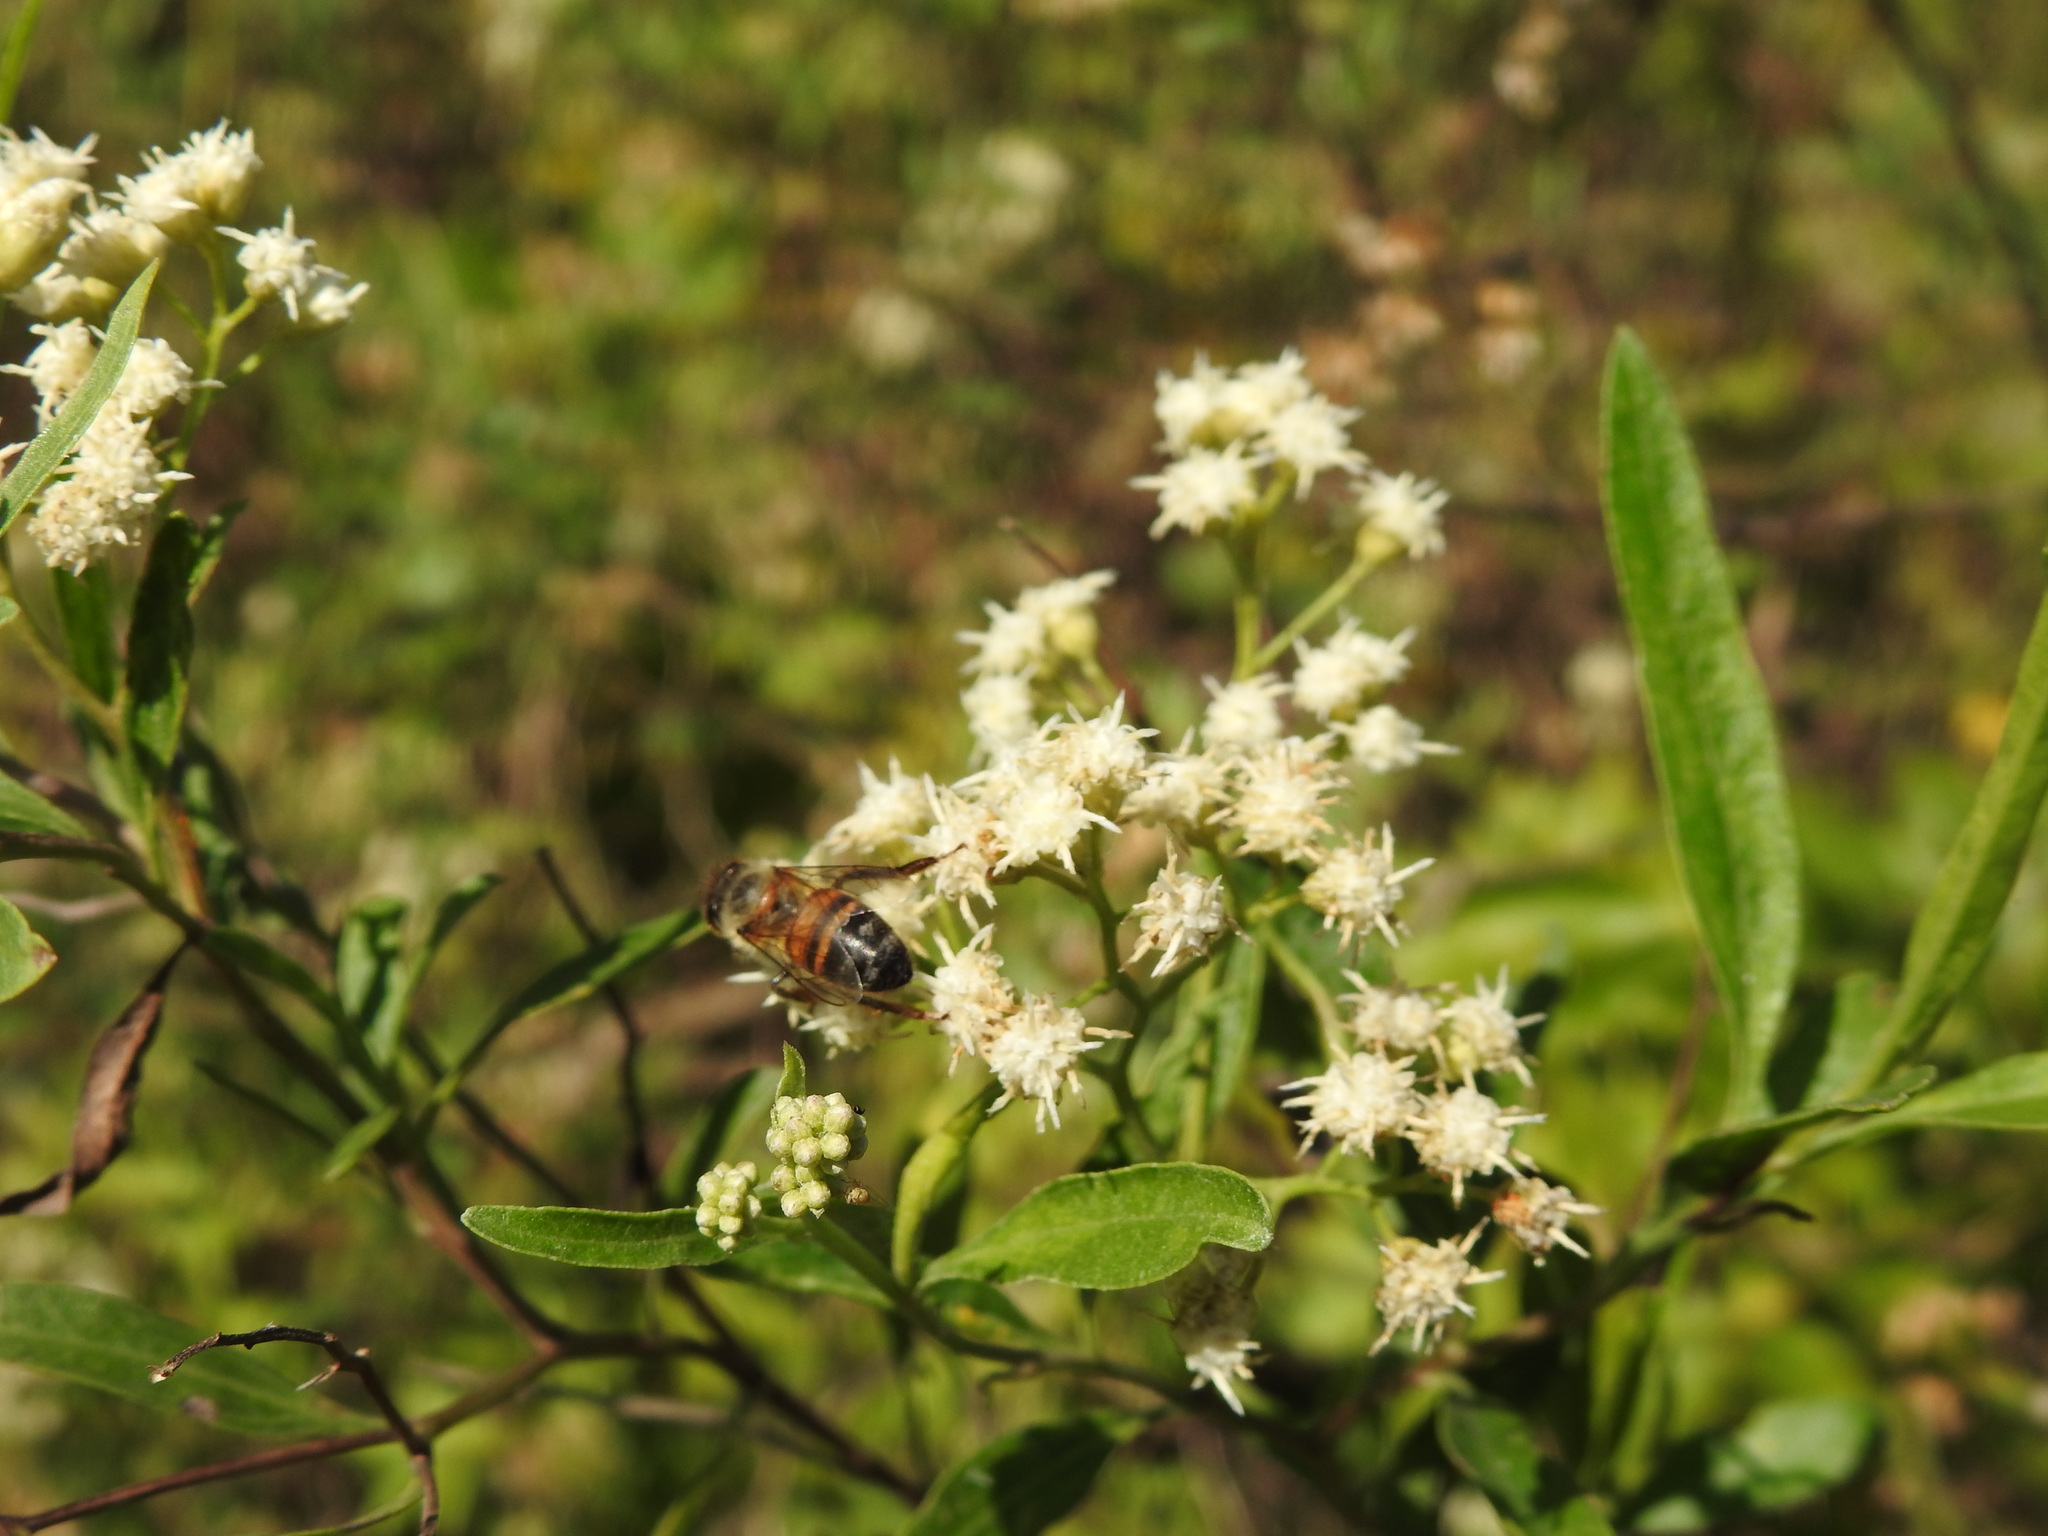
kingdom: Animalia
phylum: Arthropoda
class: Insecta
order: Hymenoptera
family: Apidae
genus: Apis
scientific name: Apis mellifera
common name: Honey bee
